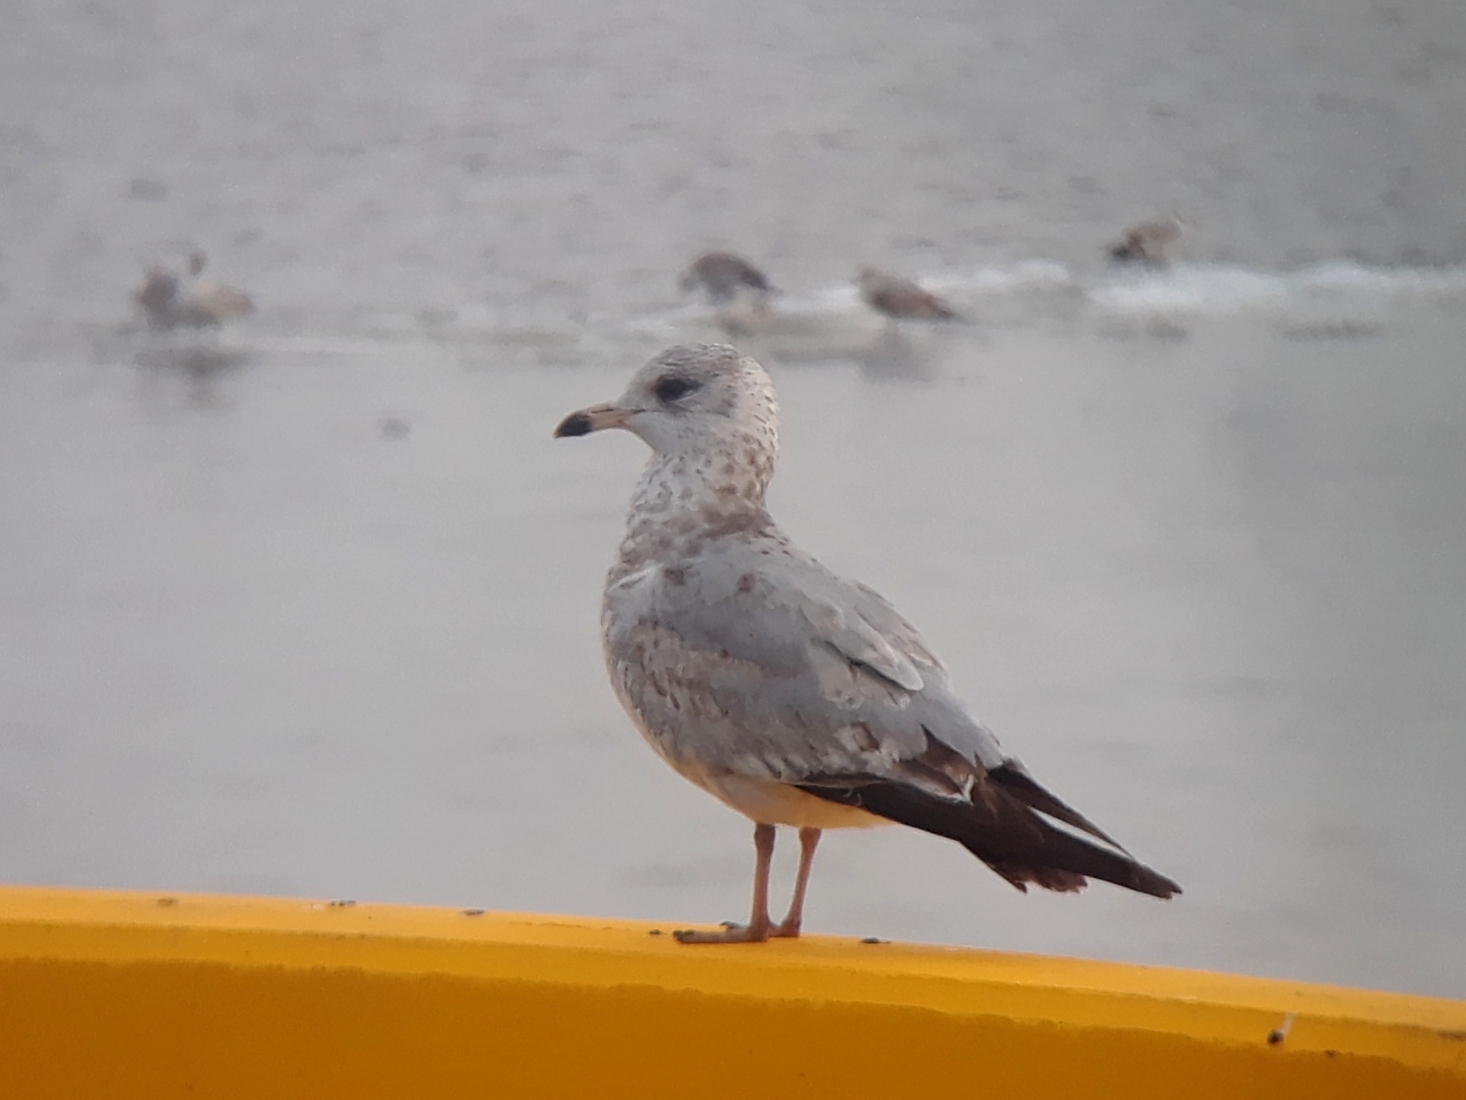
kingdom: Animalia
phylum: Chordata
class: Aves
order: Charadriiformes
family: Laridae
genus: Larus
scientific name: Larus delawarensis
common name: Ring-billed gull
